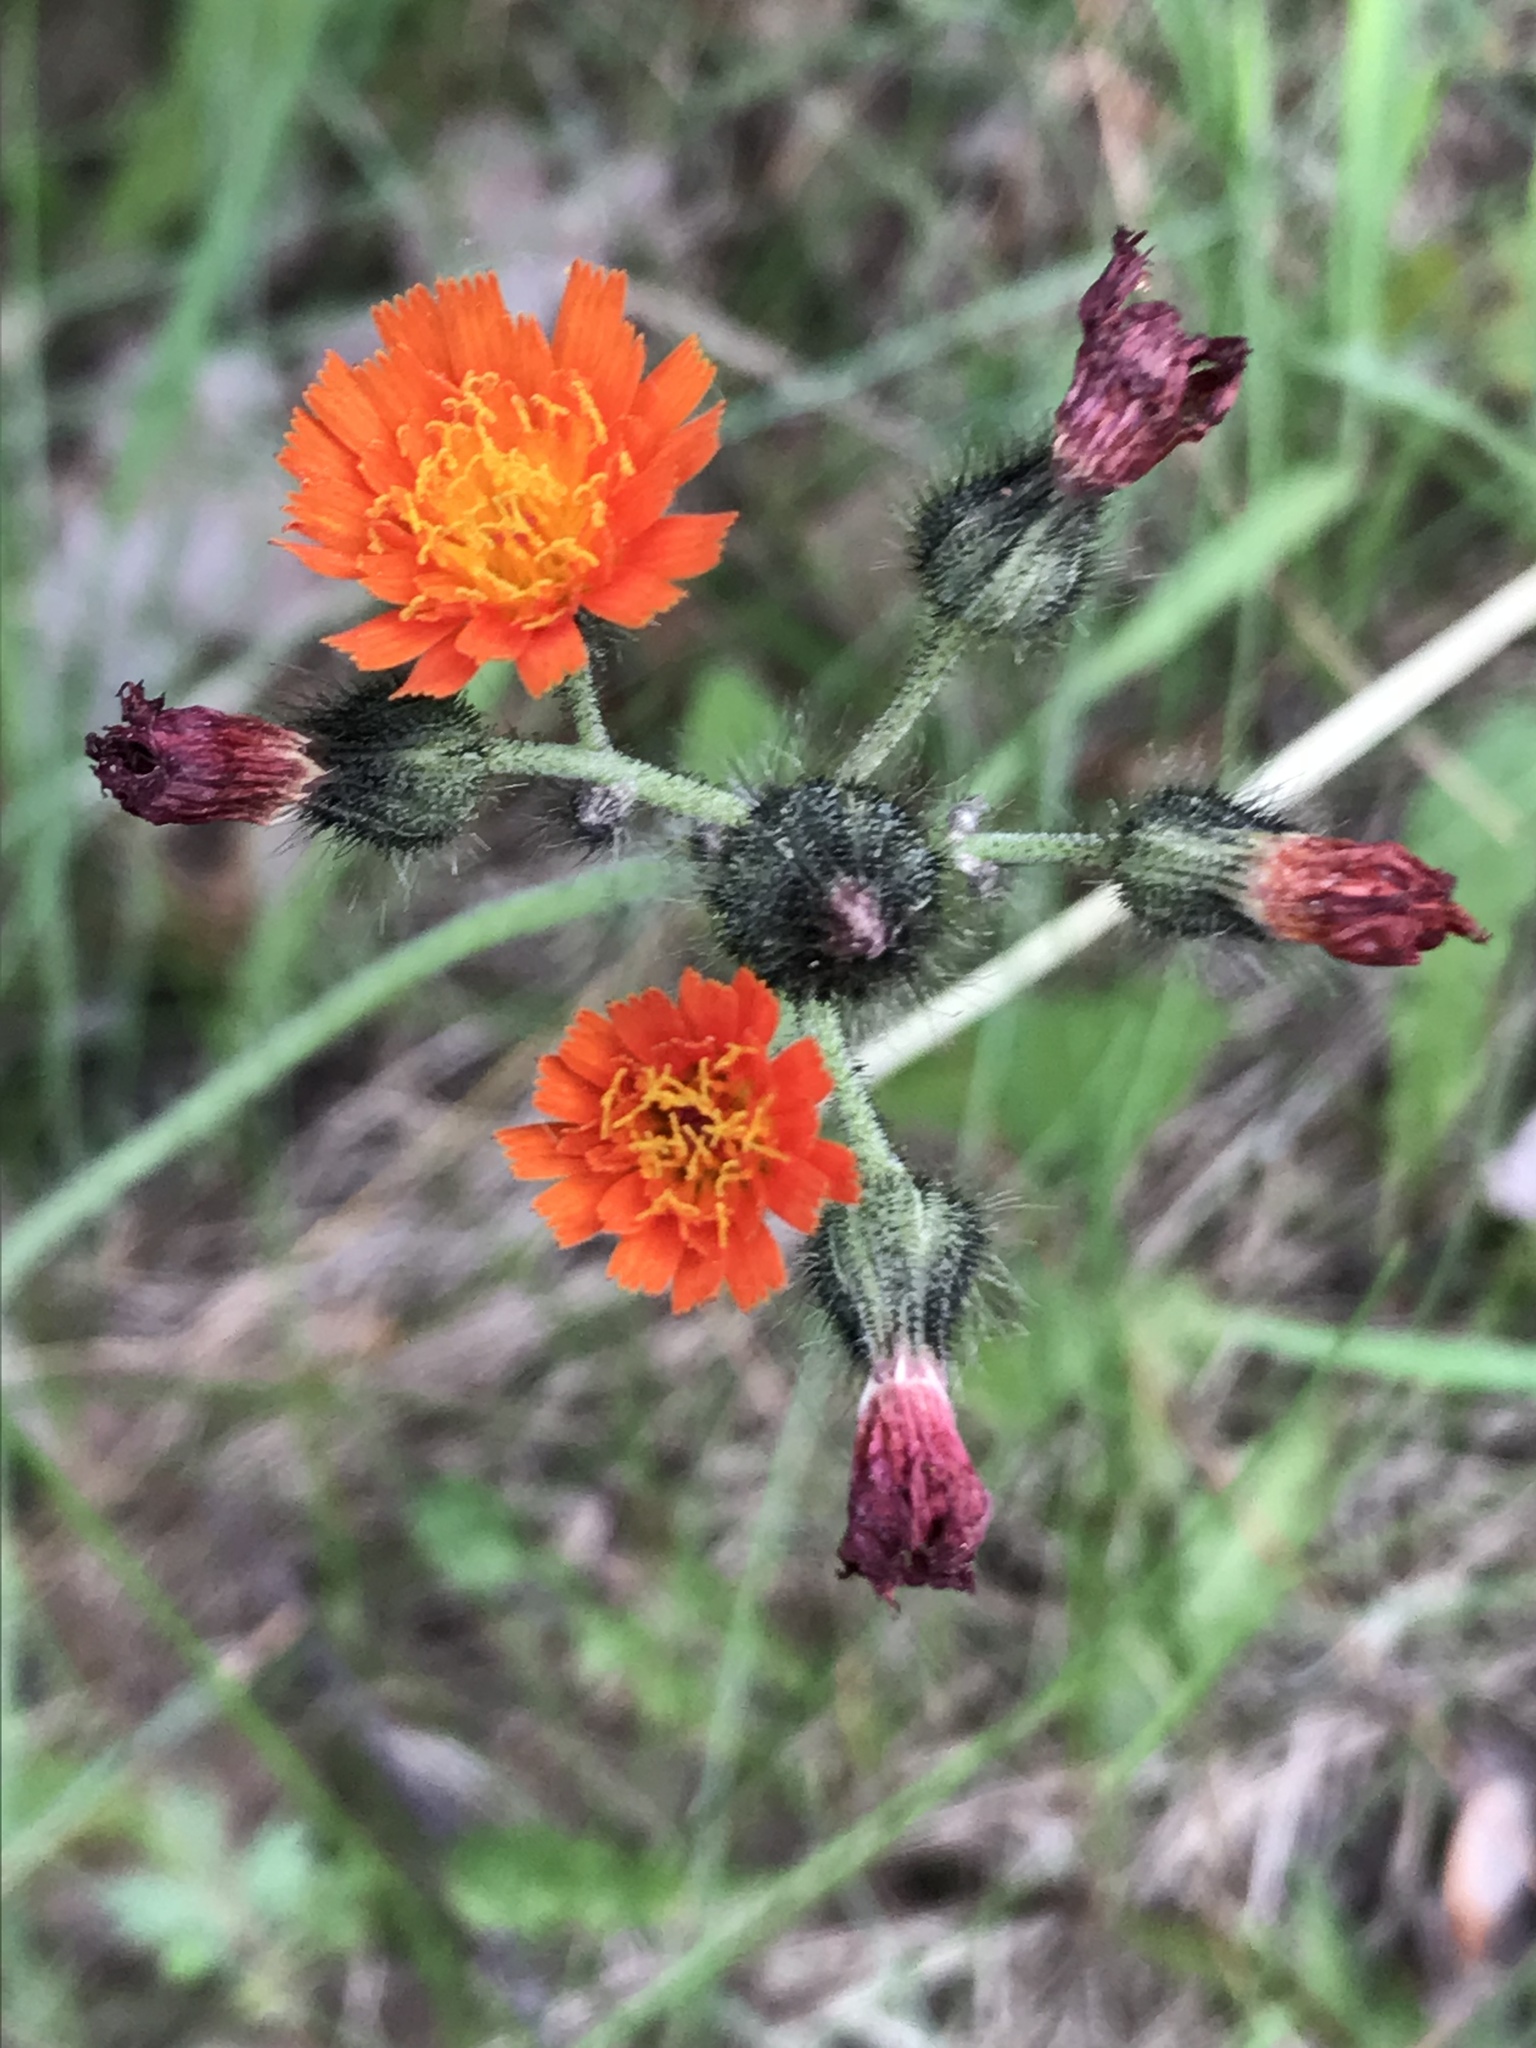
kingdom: Plantae
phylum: Tracheophyta
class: Magnoliopsida
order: Asterales
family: Asteraceae
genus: Pilosella
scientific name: Pilosella aurantiaca
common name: Fox-and-cubs
